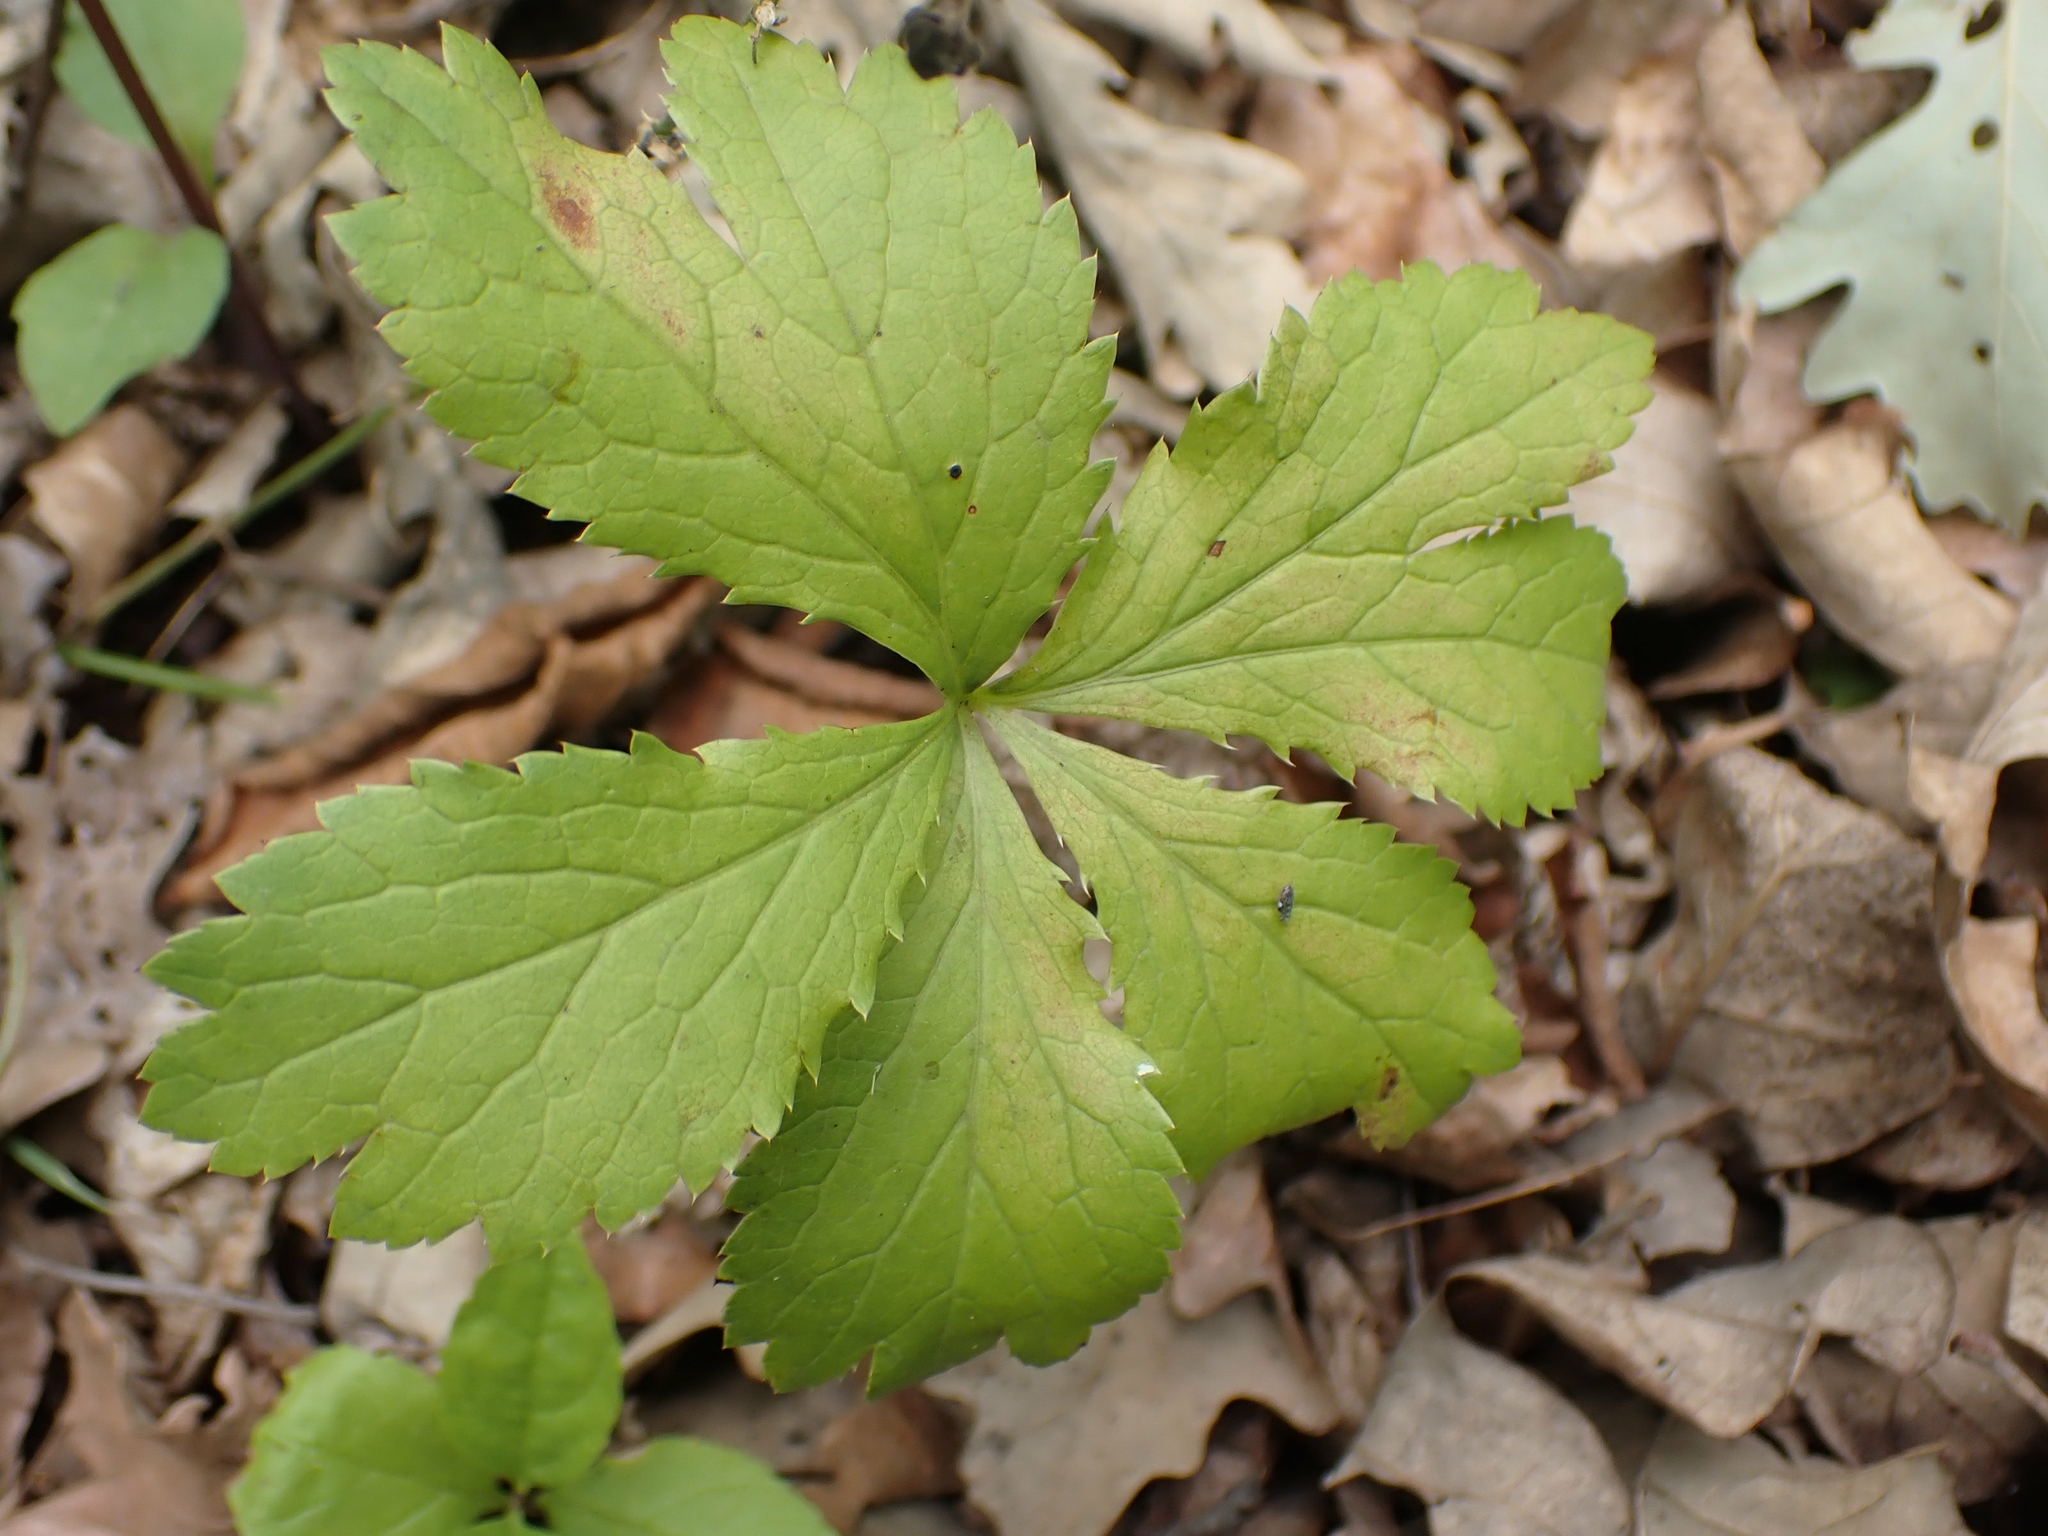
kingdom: Plantae
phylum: Tracheophyta
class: Magnoliopsida
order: Apiales
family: Apiaceae
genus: Sanicula
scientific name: Sanicula marilandica
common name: Black snakeroot
